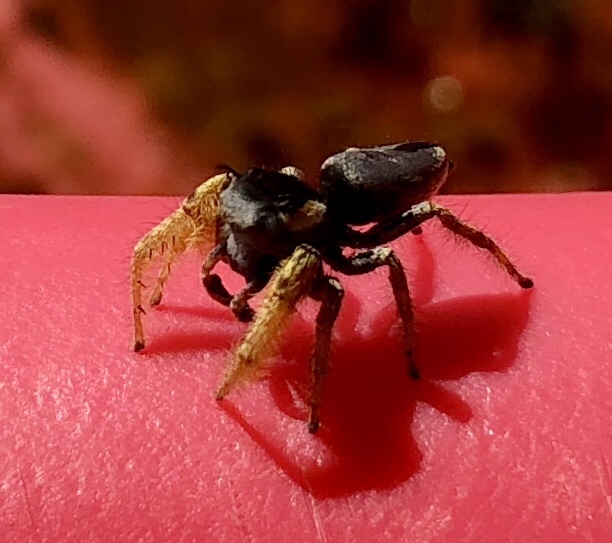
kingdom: Animalia
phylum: Arthropoda
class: Arachnida
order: Araneae
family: Salticidae
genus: Phidippus
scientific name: Phidippus arizonensis
